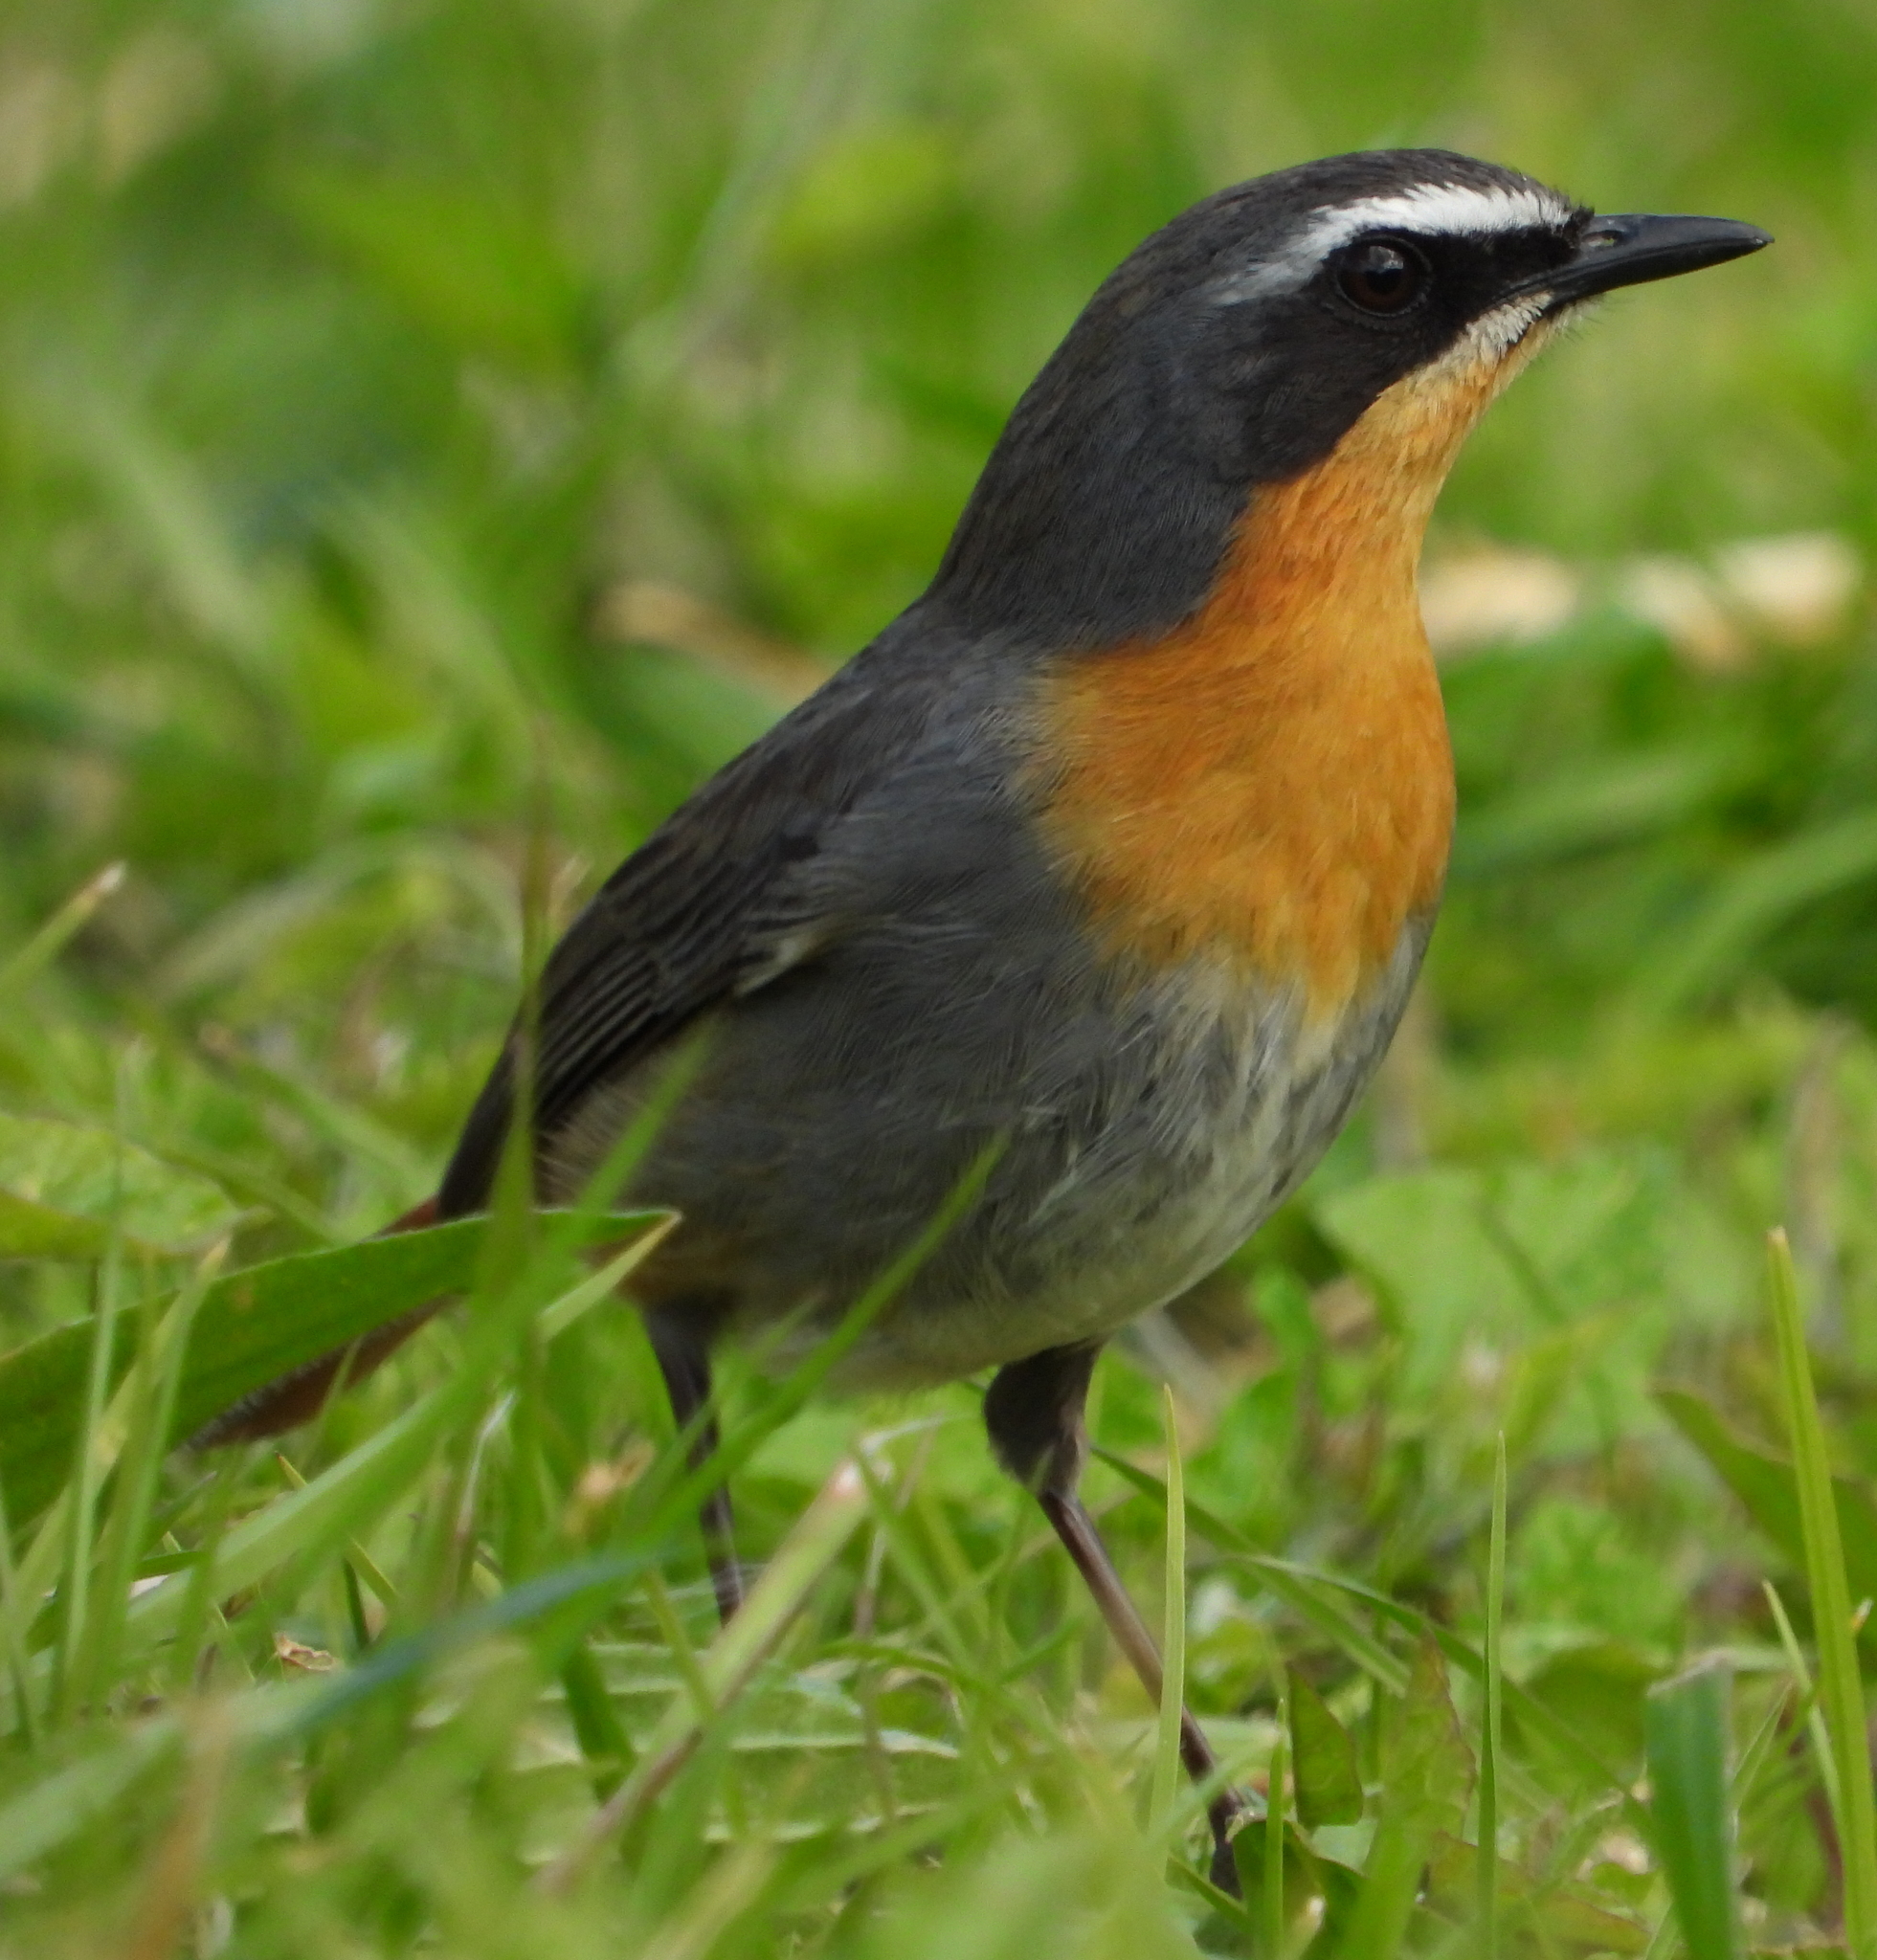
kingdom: Animalia
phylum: Chordata
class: Aves
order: Passeriformes
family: Muscicapidae
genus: Cossypha
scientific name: Cossypha caffra
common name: Cape robin-chat
